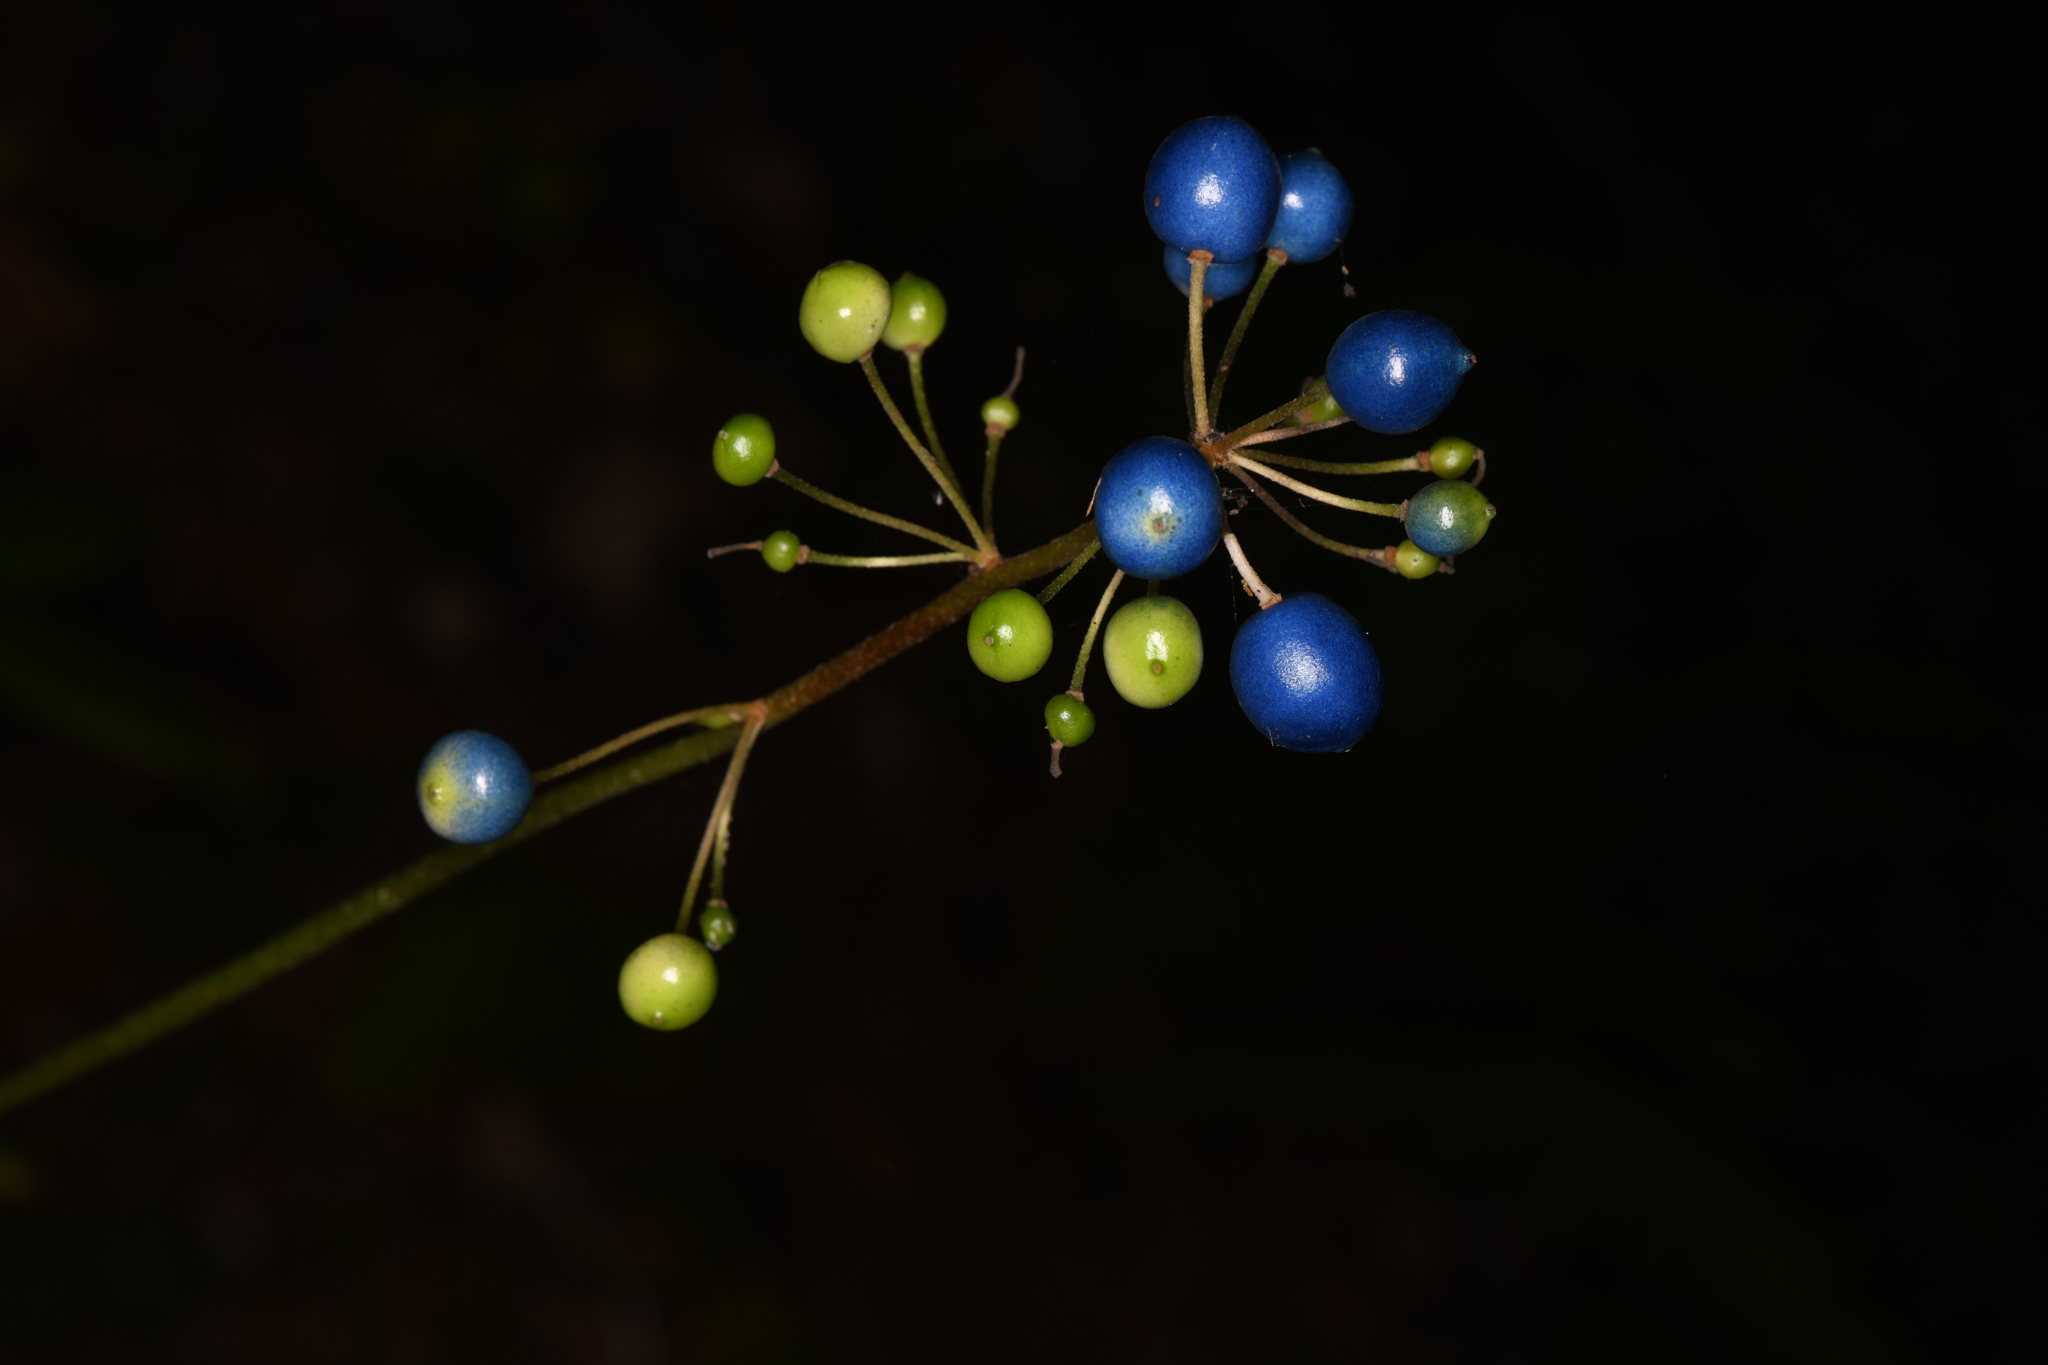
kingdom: Plantae
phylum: Tracheophyta
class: Liliopsida
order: Liliales
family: Liliaceae
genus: Clintonia
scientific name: Clintonia andrewsiana
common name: Red clintonia
